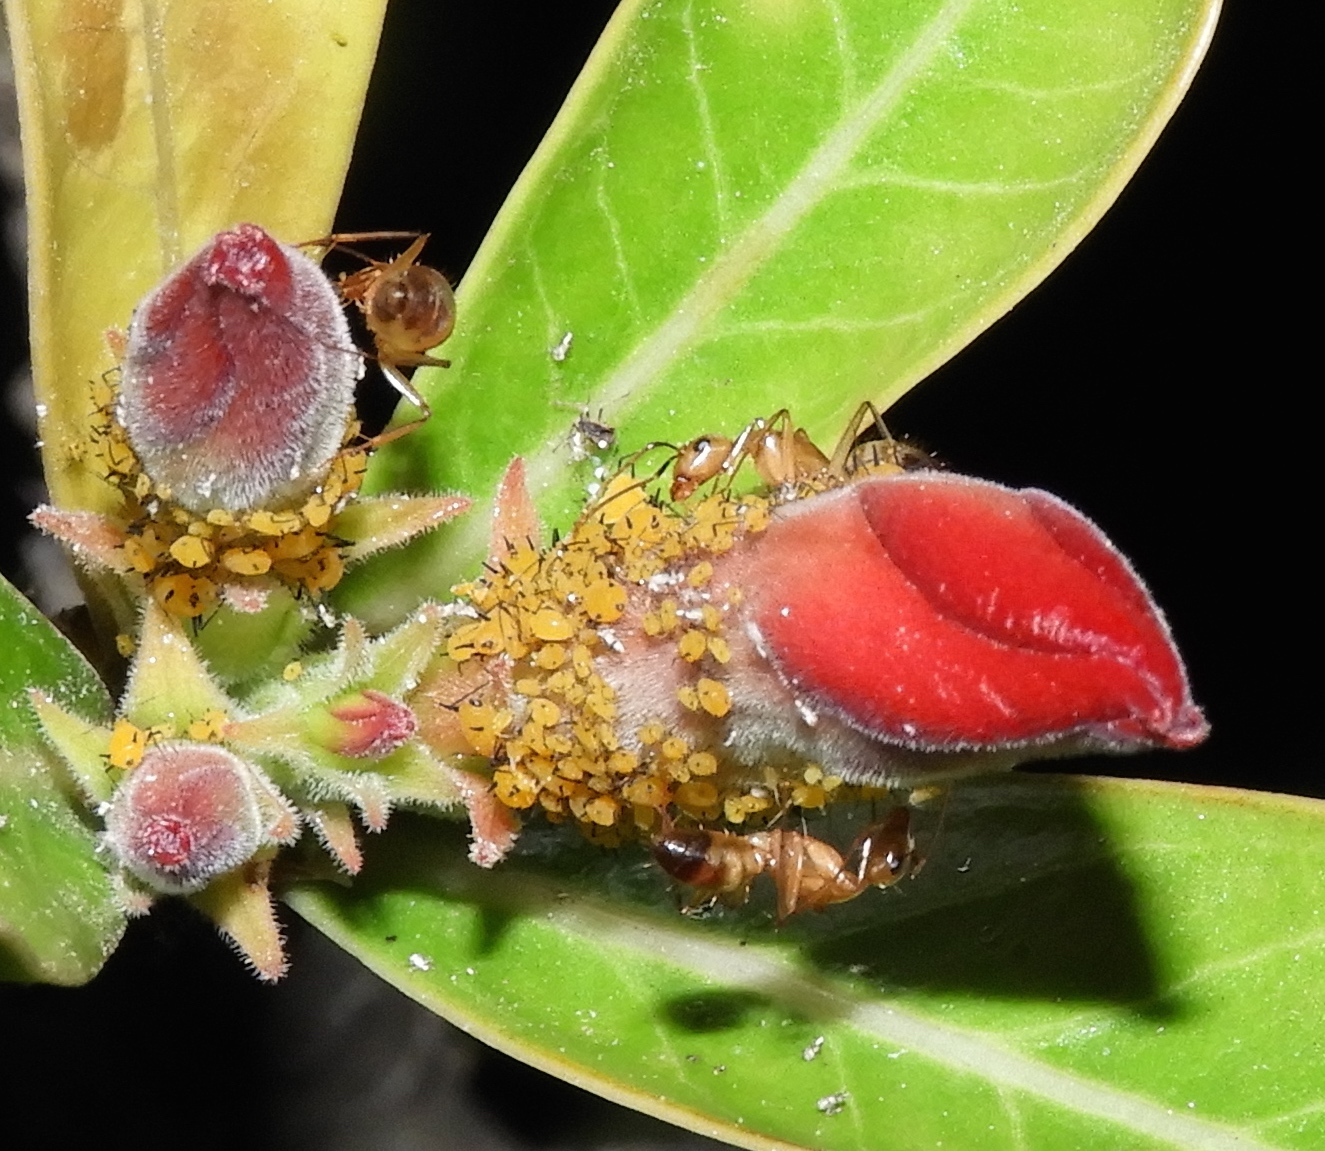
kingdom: Animalia
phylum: Arthropoda
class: Insecta
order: Hymenoptera
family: Formicidae
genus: Camponotus
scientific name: Camponotus
